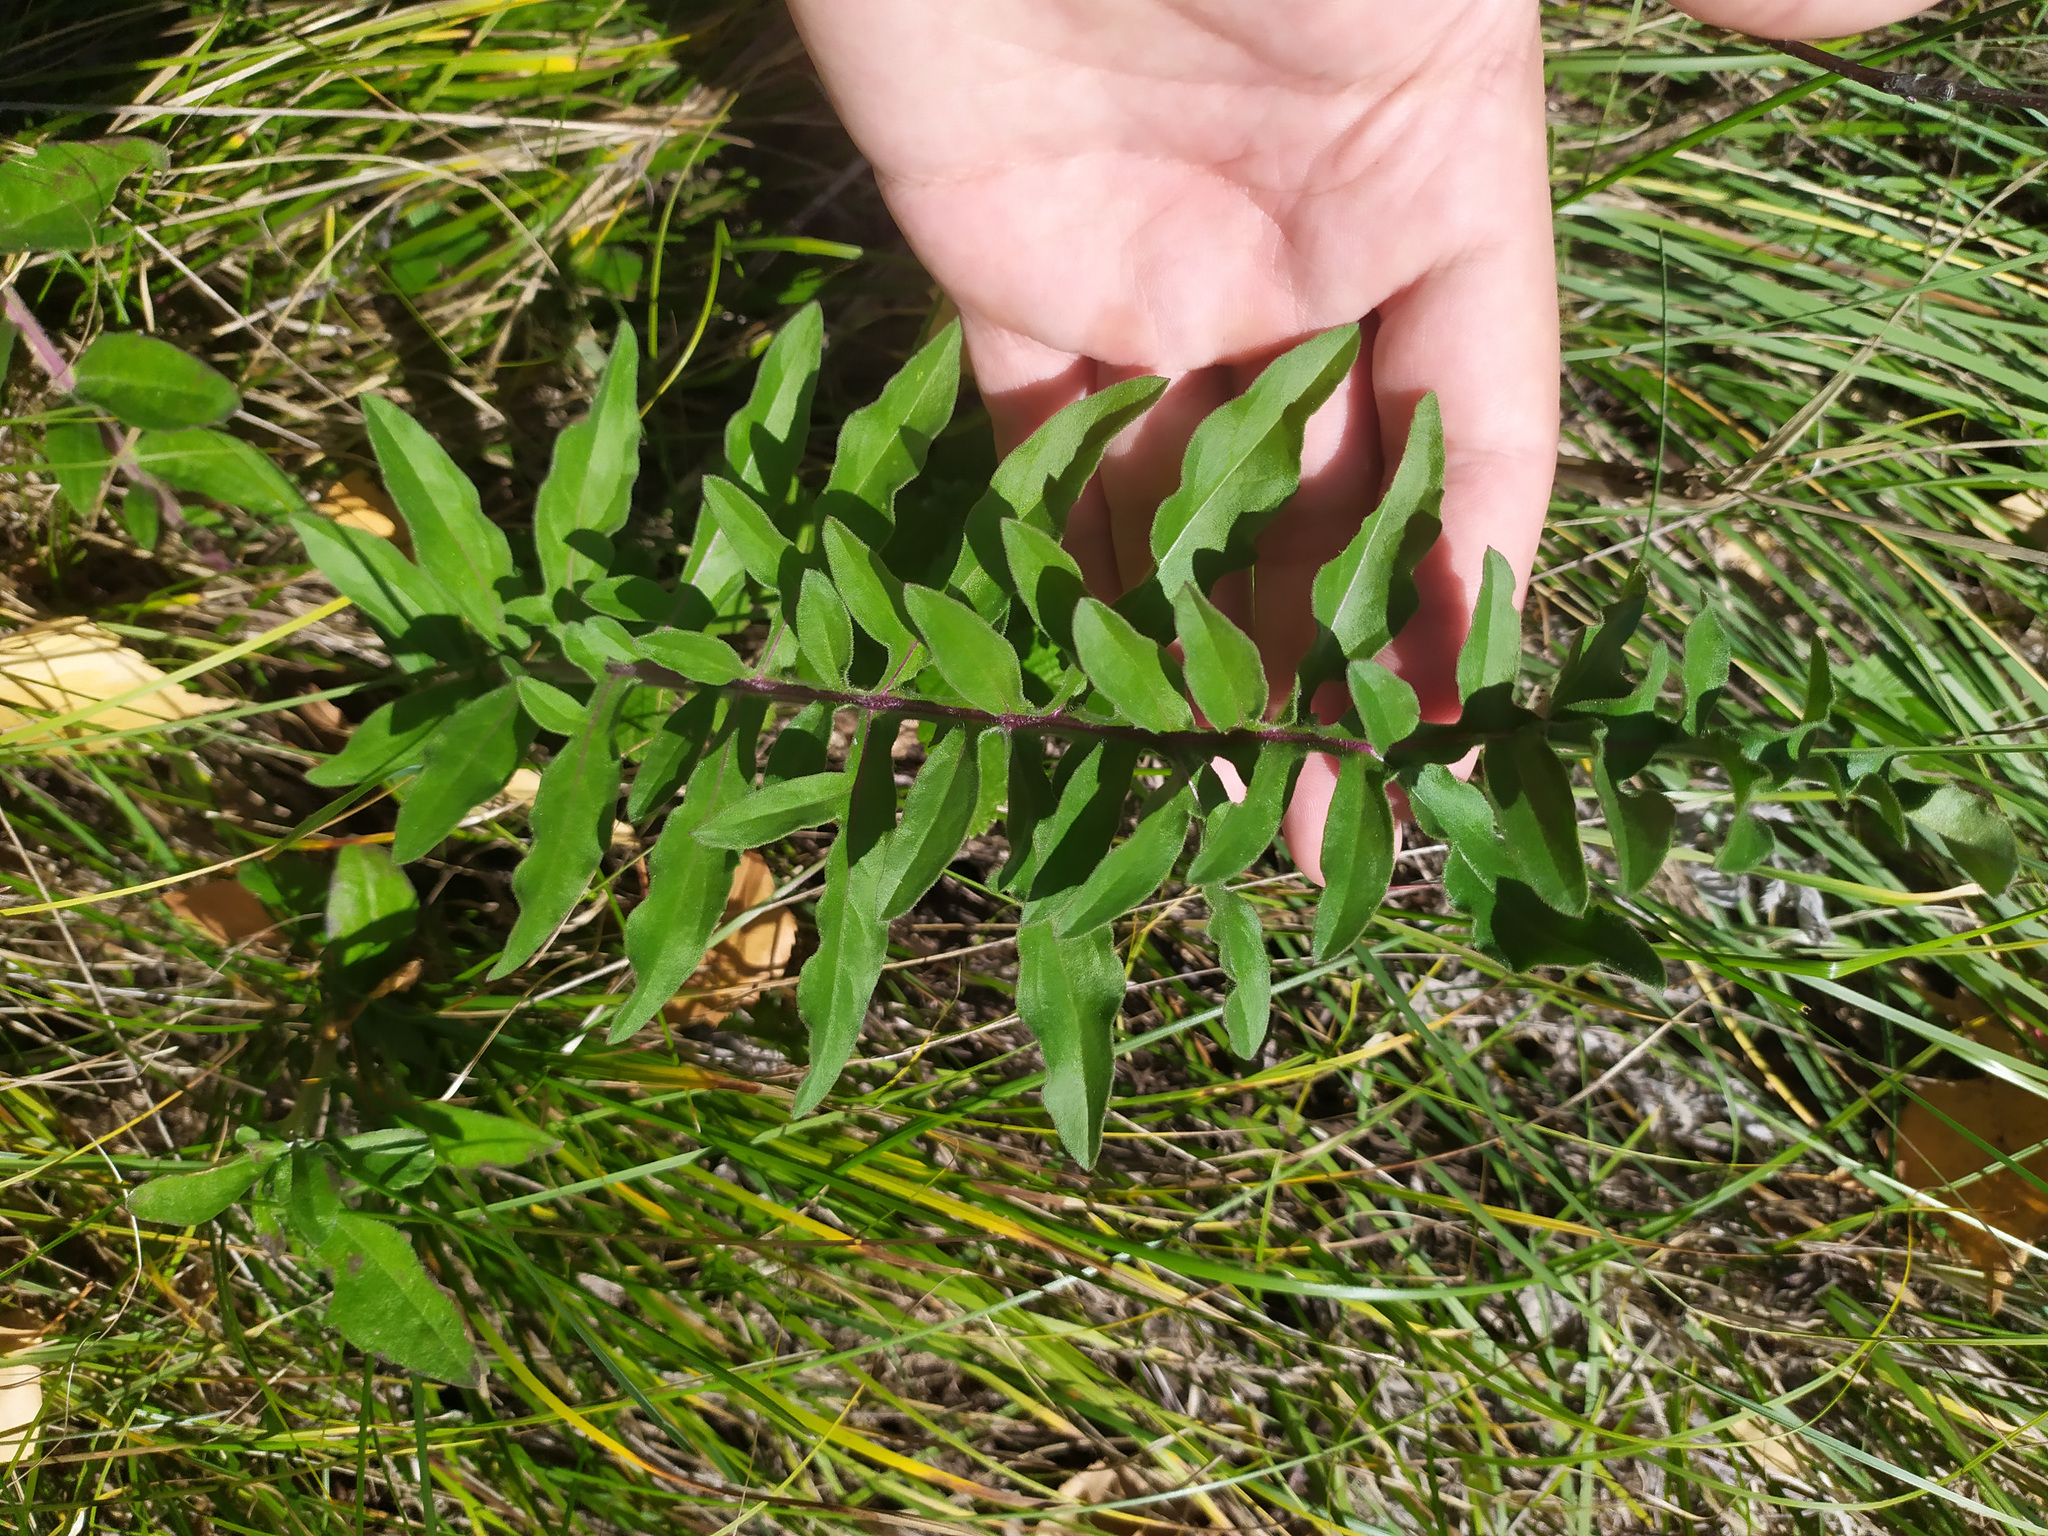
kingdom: Plantae
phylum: Tracheophyta
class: Magnoliopsida
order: Asterales
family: Asteraceae
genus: Centaurea
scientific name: Centaurea scabiosa
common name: Greater knapweed
